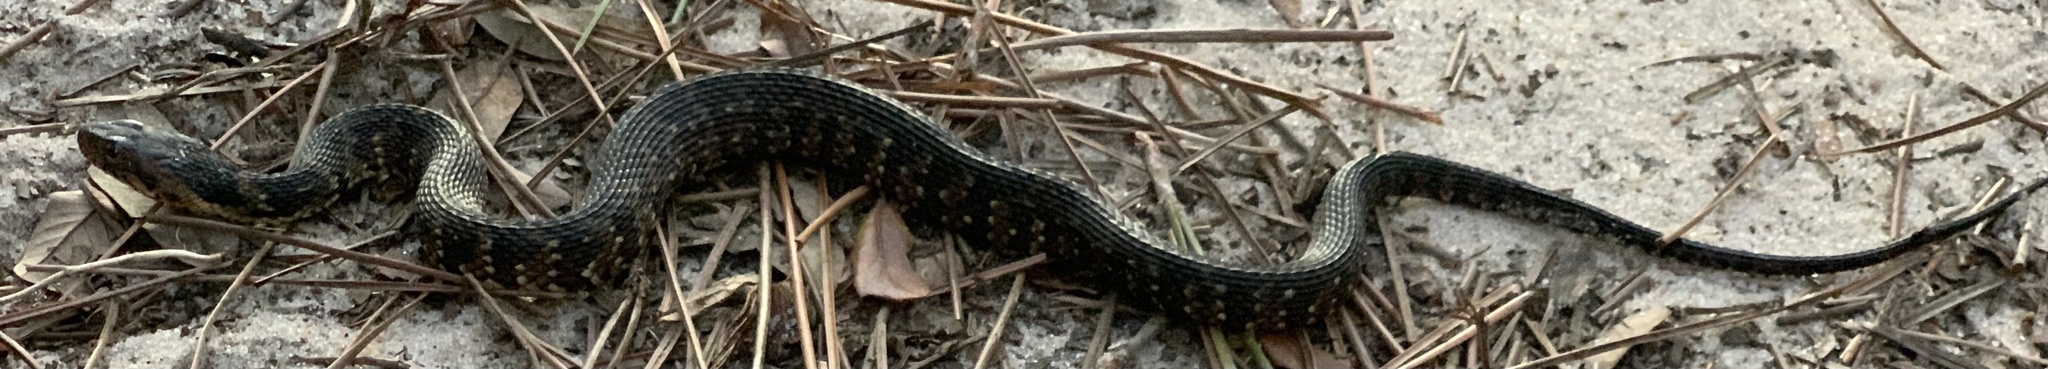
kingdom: Animalia
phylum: Chordata
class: Squamata
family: Colubridae
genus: Nerodia
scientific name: Nerodia fasciata
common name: Southern water snake
